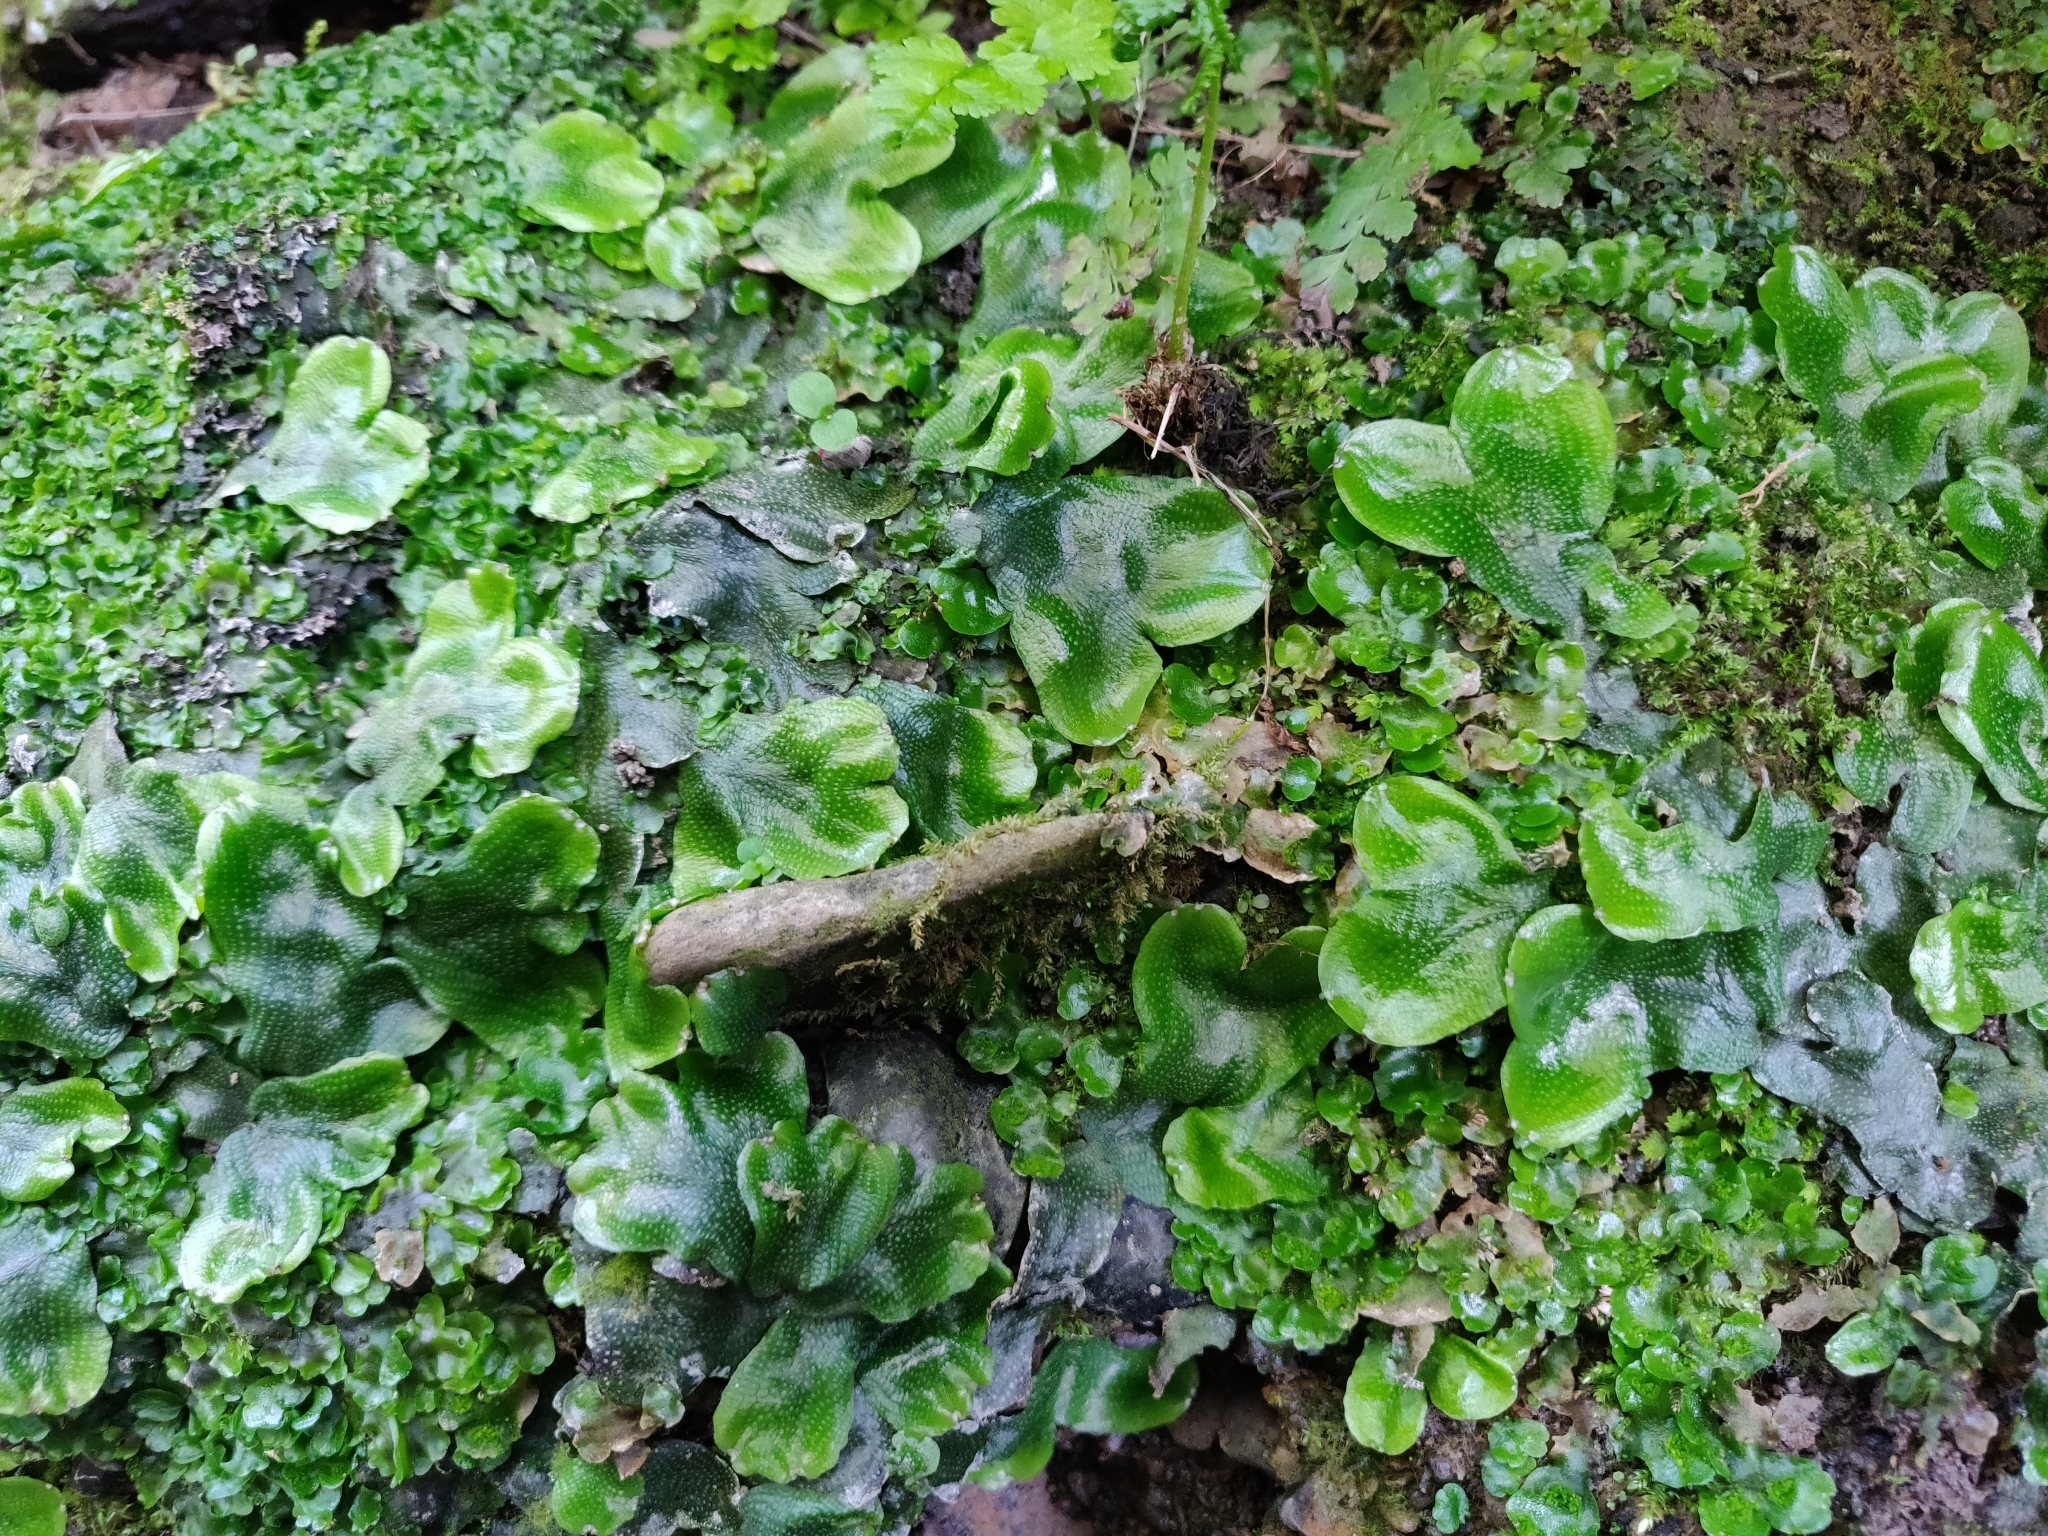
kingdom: Plantae
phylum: Marchantiophyta
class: Marchantiopsida
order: Marchantiales
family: Conocephalaceae
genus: Conocephalum
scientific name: Conocephalum conicum
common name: Great scented liverwort
